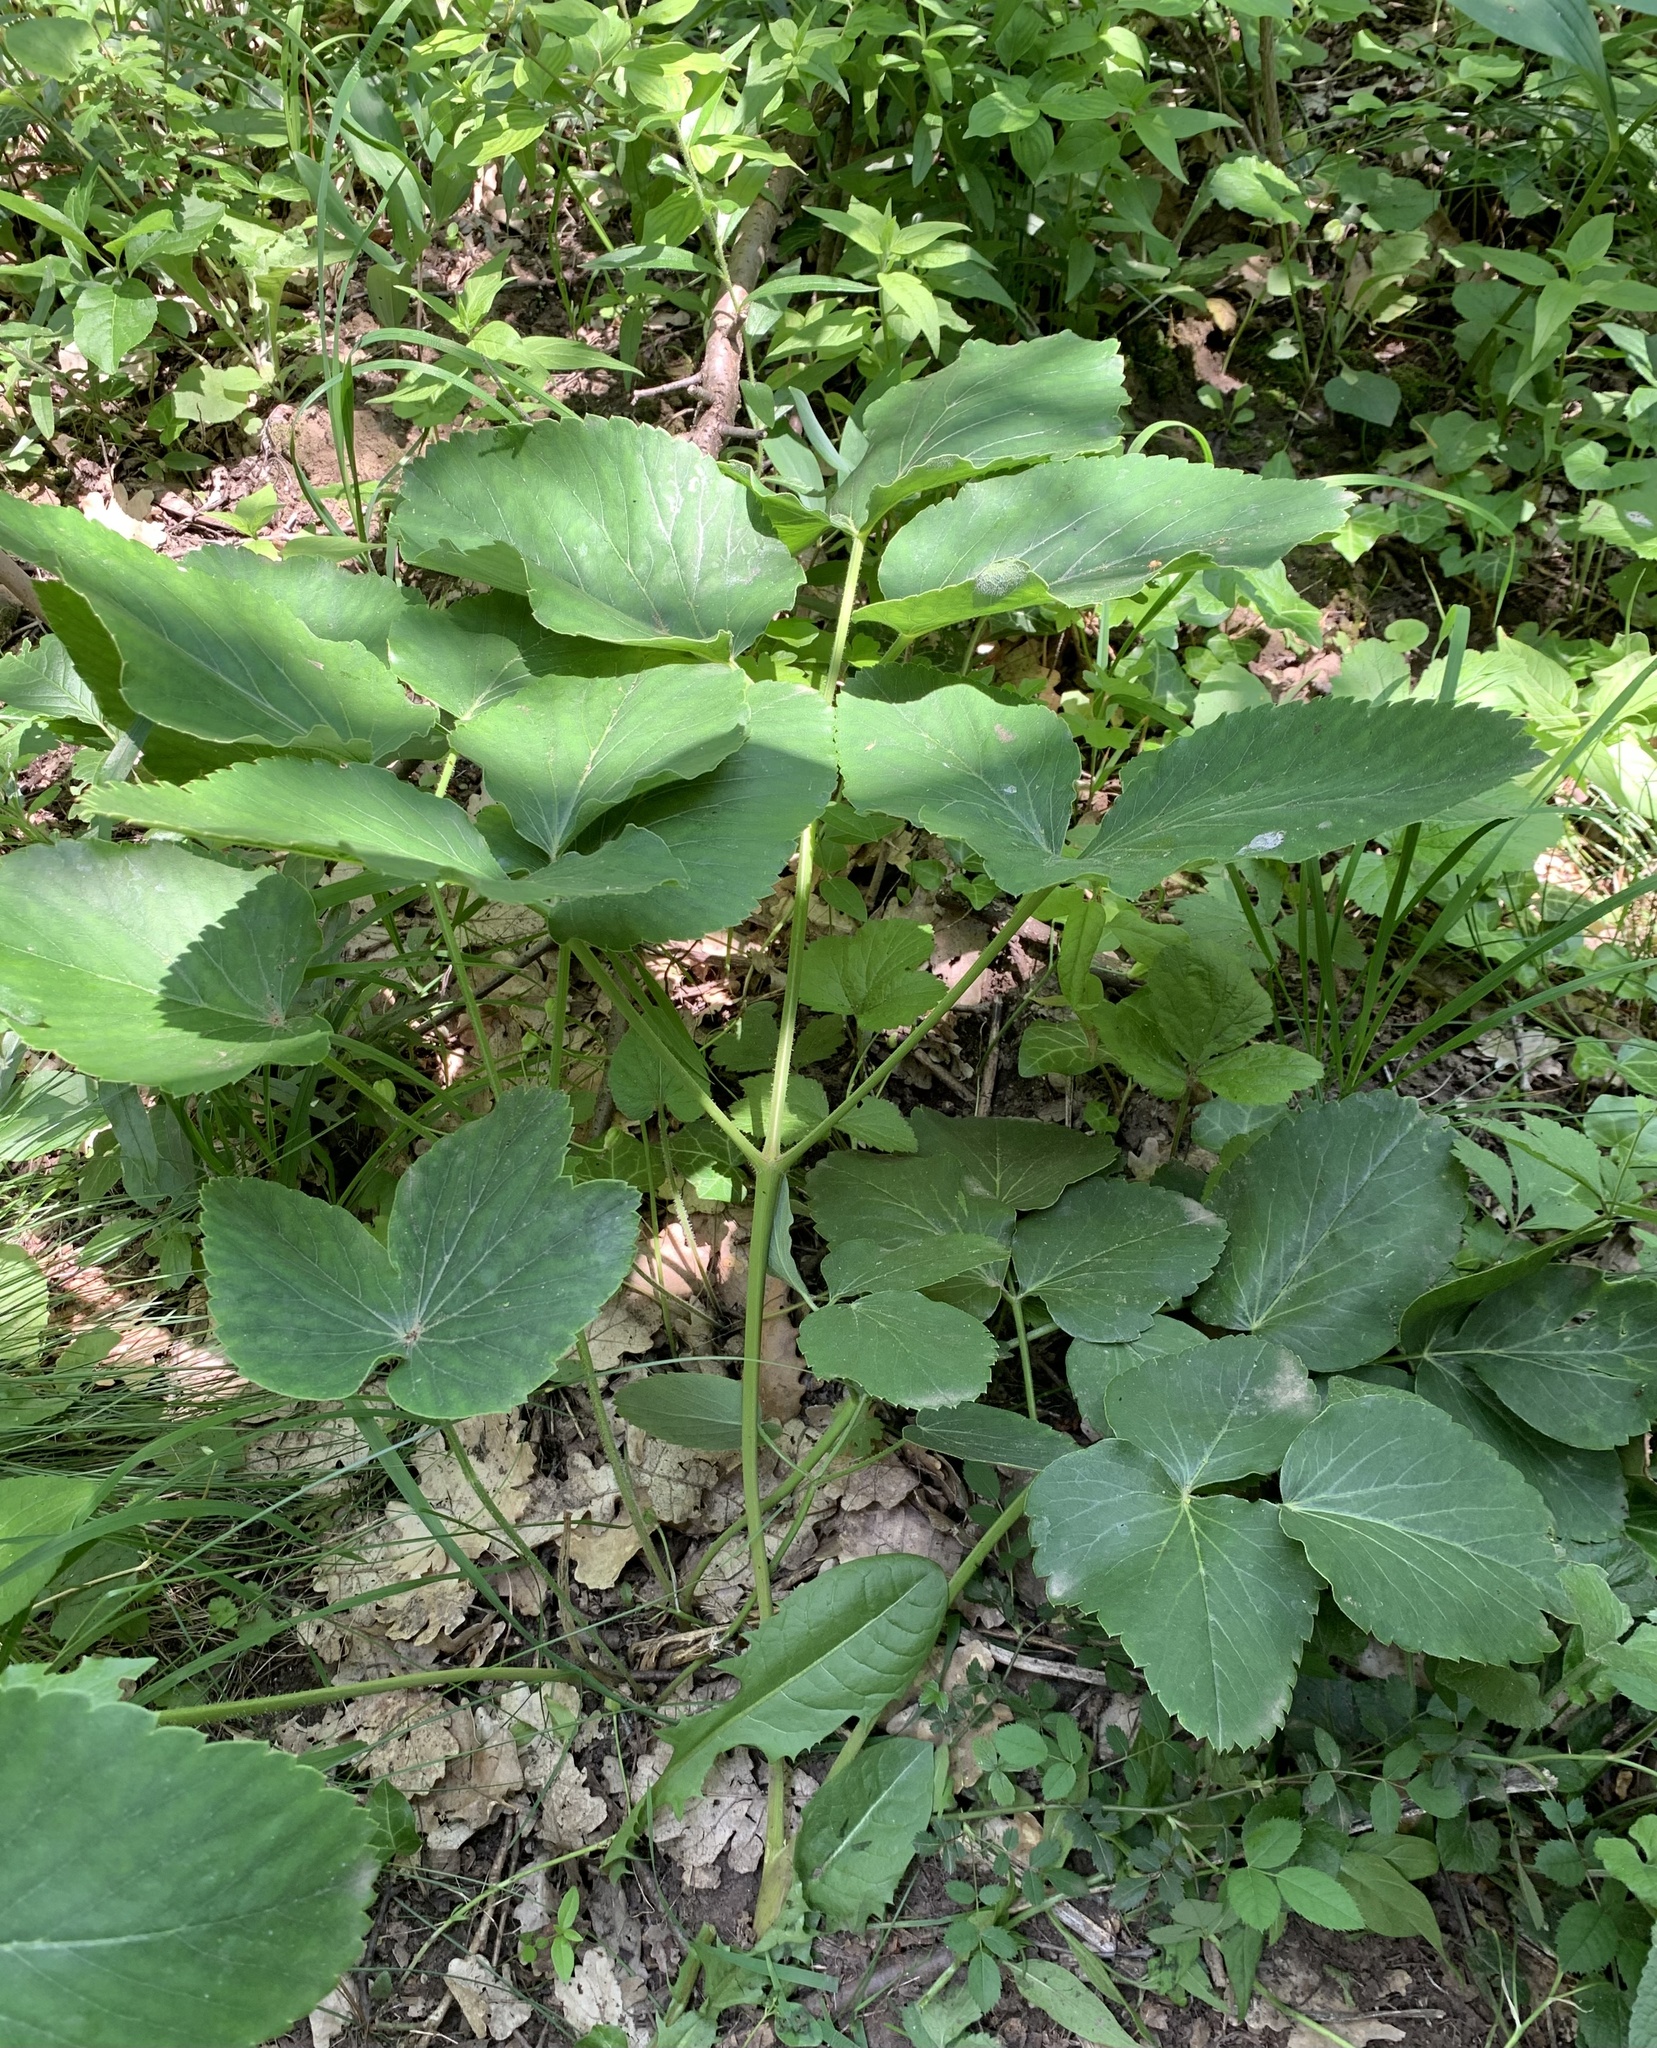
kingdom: Plantae
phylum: Tracheophyta
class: Magnoliopsida
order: Apiales
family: Apiaceae
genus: Laserpitium
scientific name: Laserpitium latifolium
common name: Broadleaf sermountain
